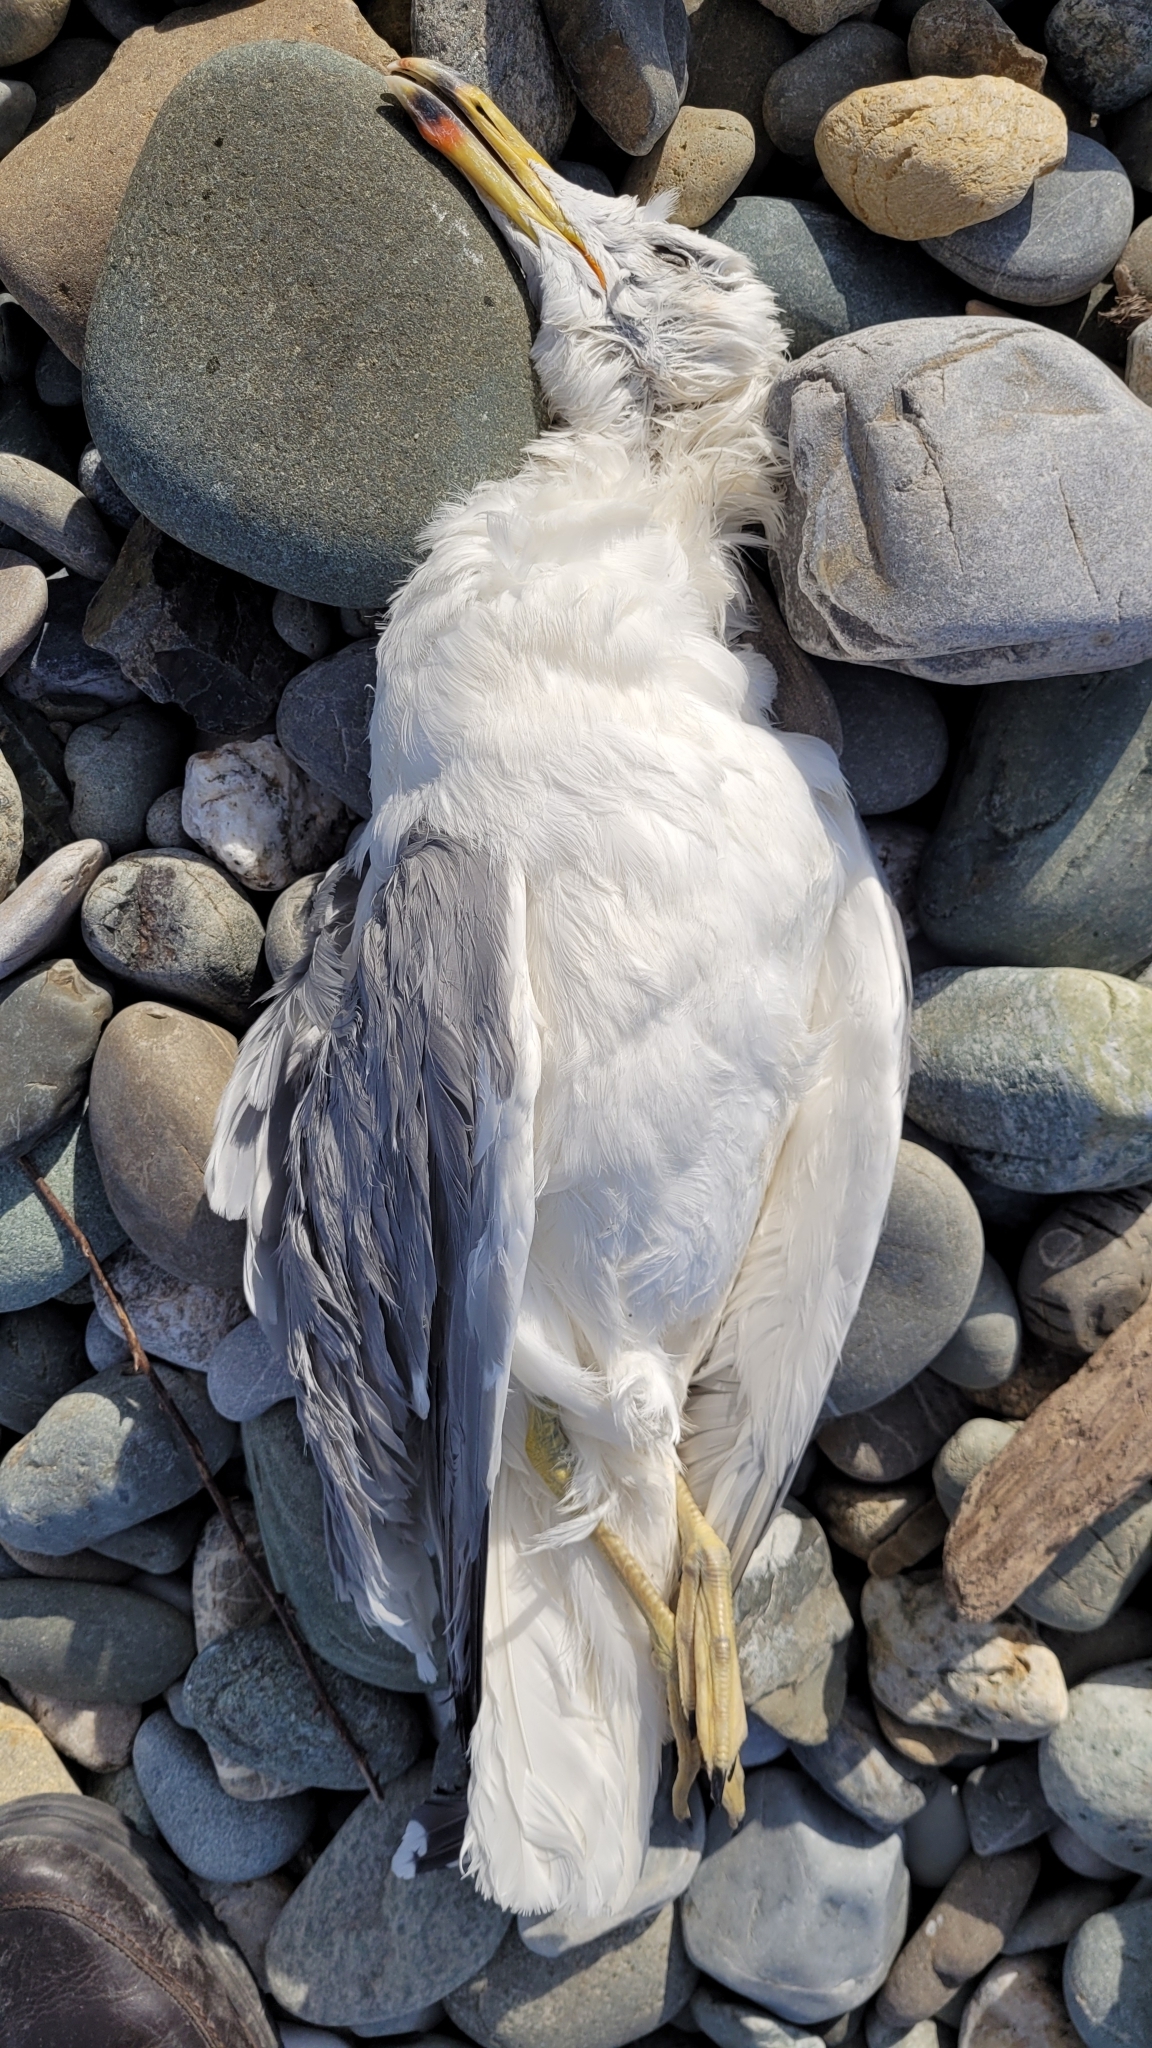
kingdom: Animalia
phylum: Chordata
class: Aves
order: Charadriiformes
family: Laridae
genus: Larus
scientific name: Larus michahellis
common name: Yellow-legged gull
